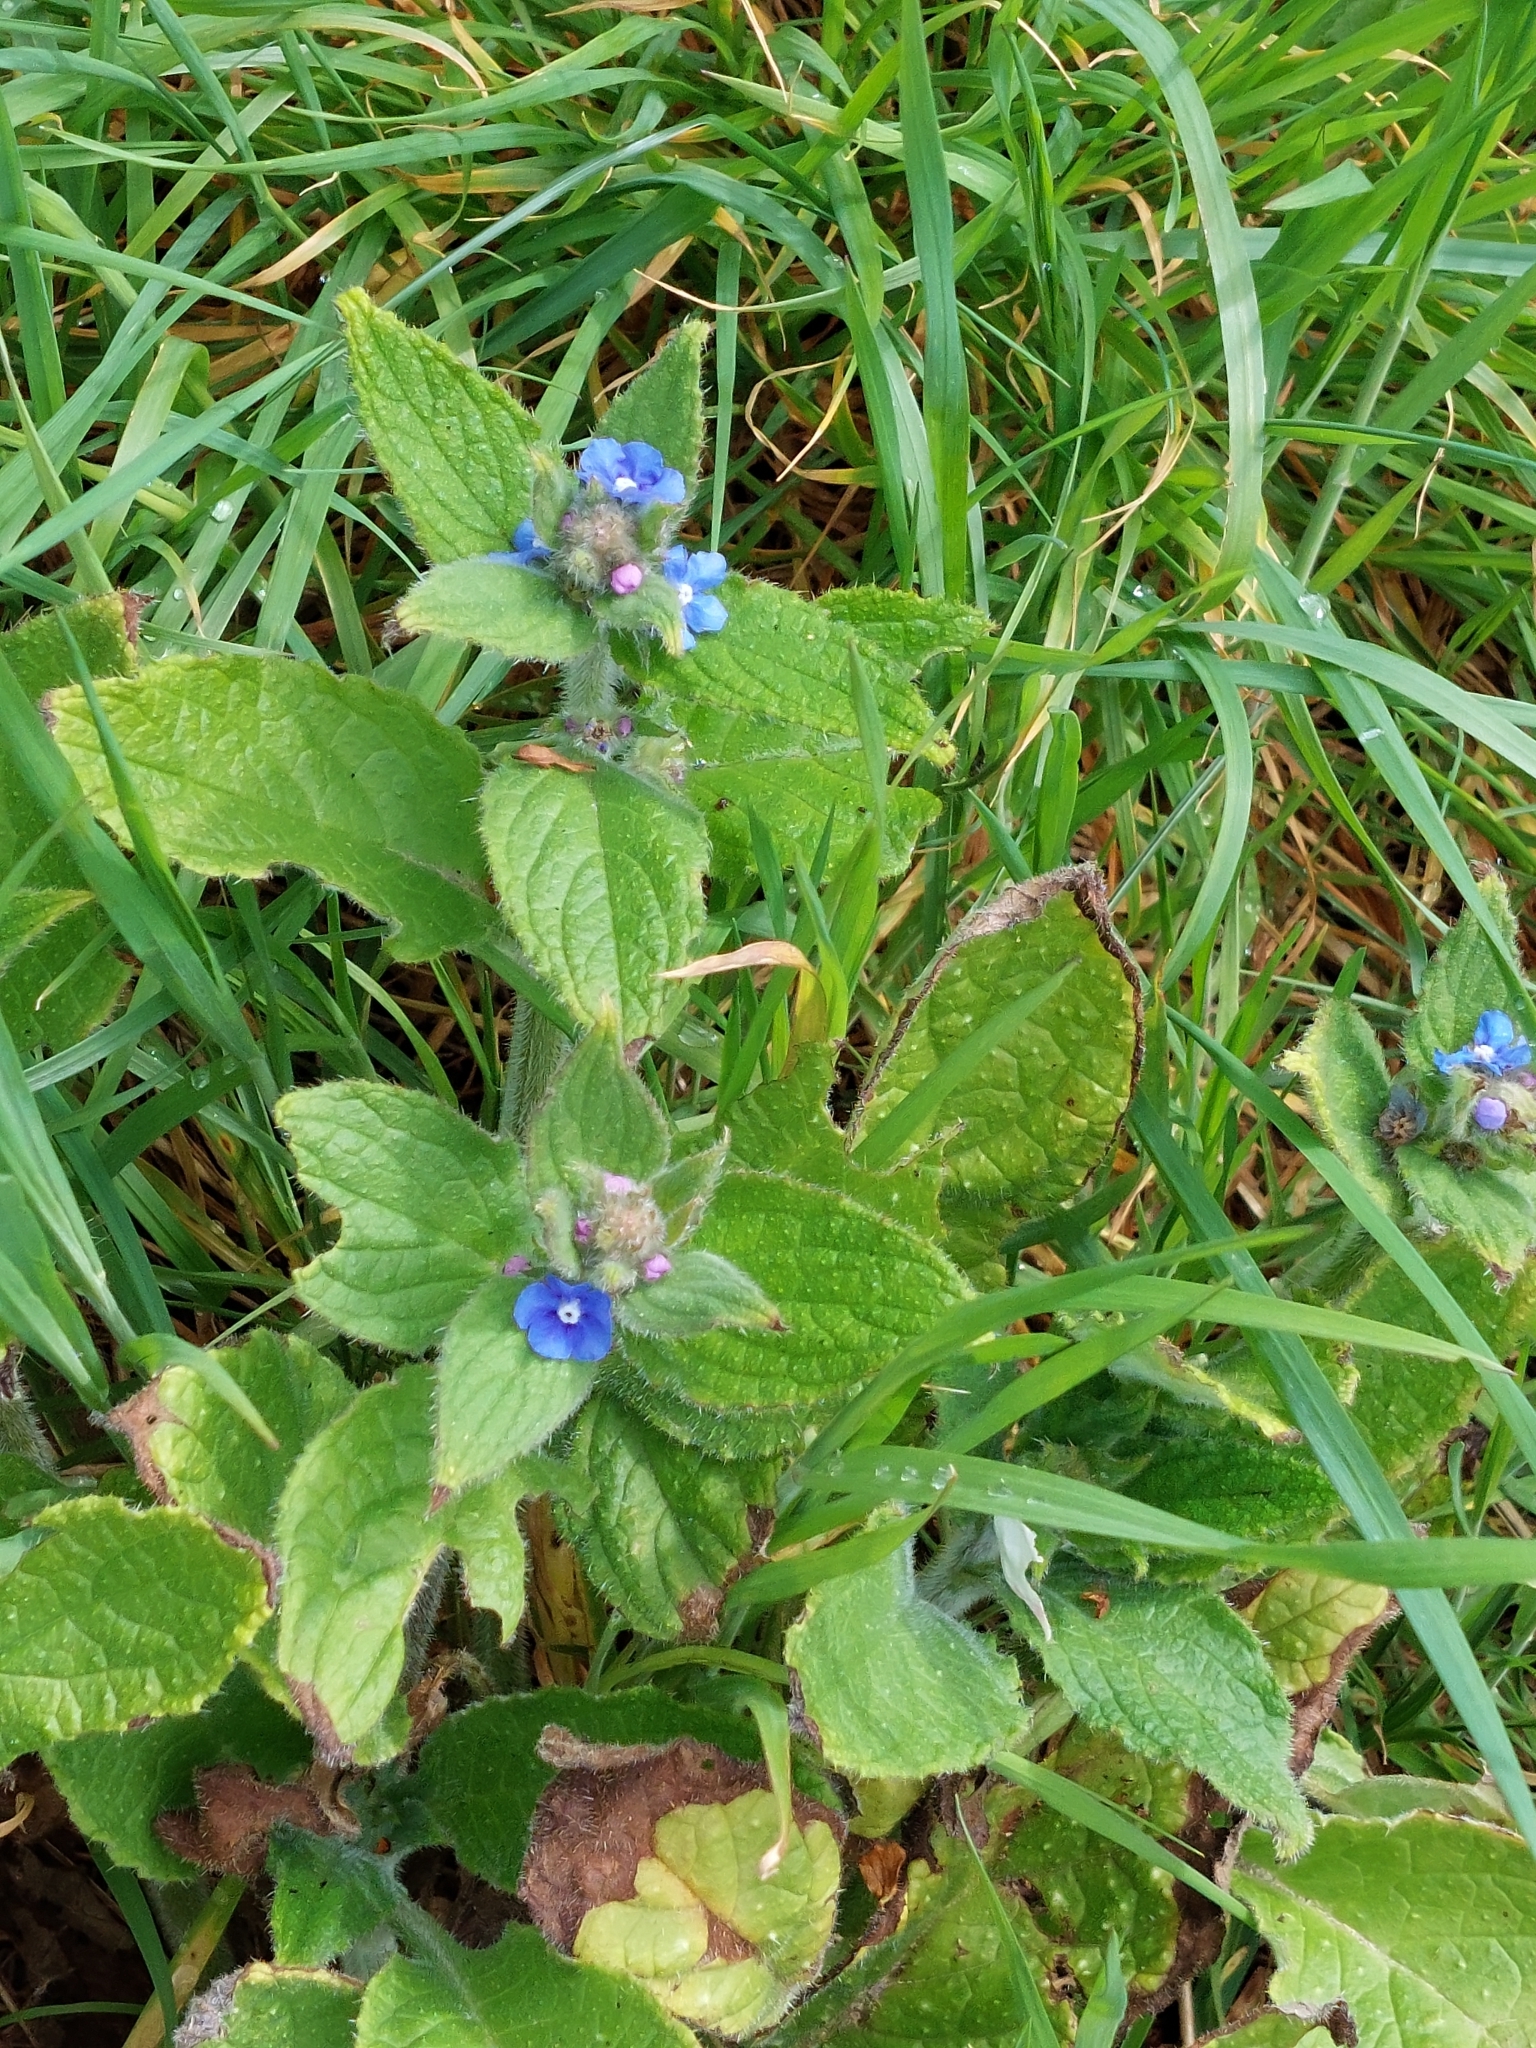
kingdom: Plantae
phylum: Tracheophyta
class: Magnoliopsida
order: Boraginales
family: Boraginaceae
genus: Pentaglottis
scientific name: Pentaglottis sempervirens
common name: Green alkanet
